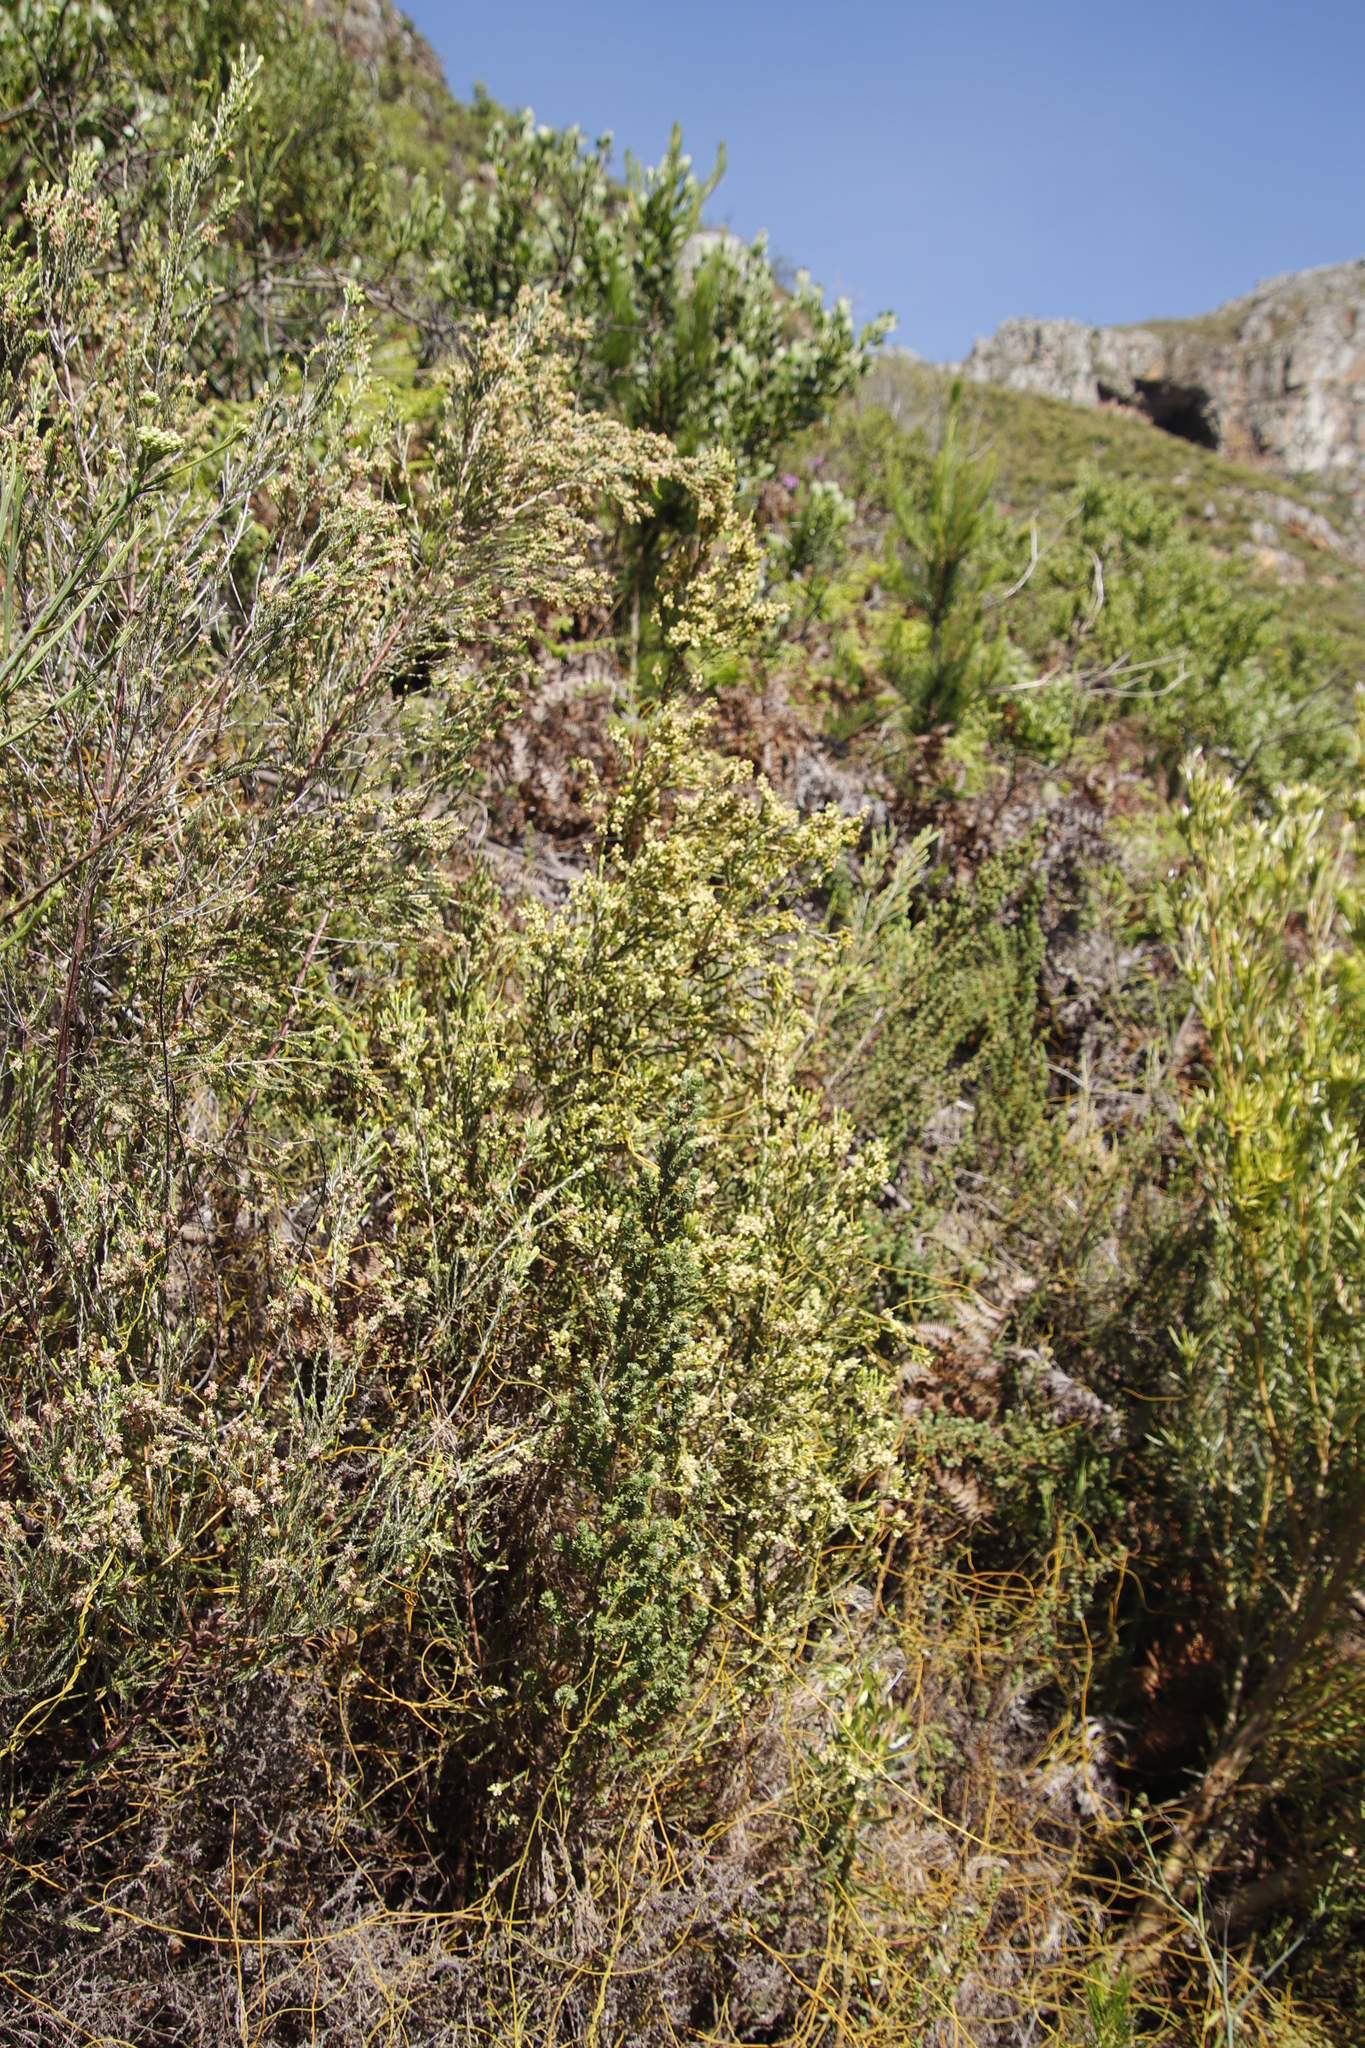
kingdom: Plantae
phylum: Tracheophyta
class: Magnoliopsida
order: Malvales
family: Thymelaeaceae
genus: Passerina
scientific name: Passerina corymbosa
